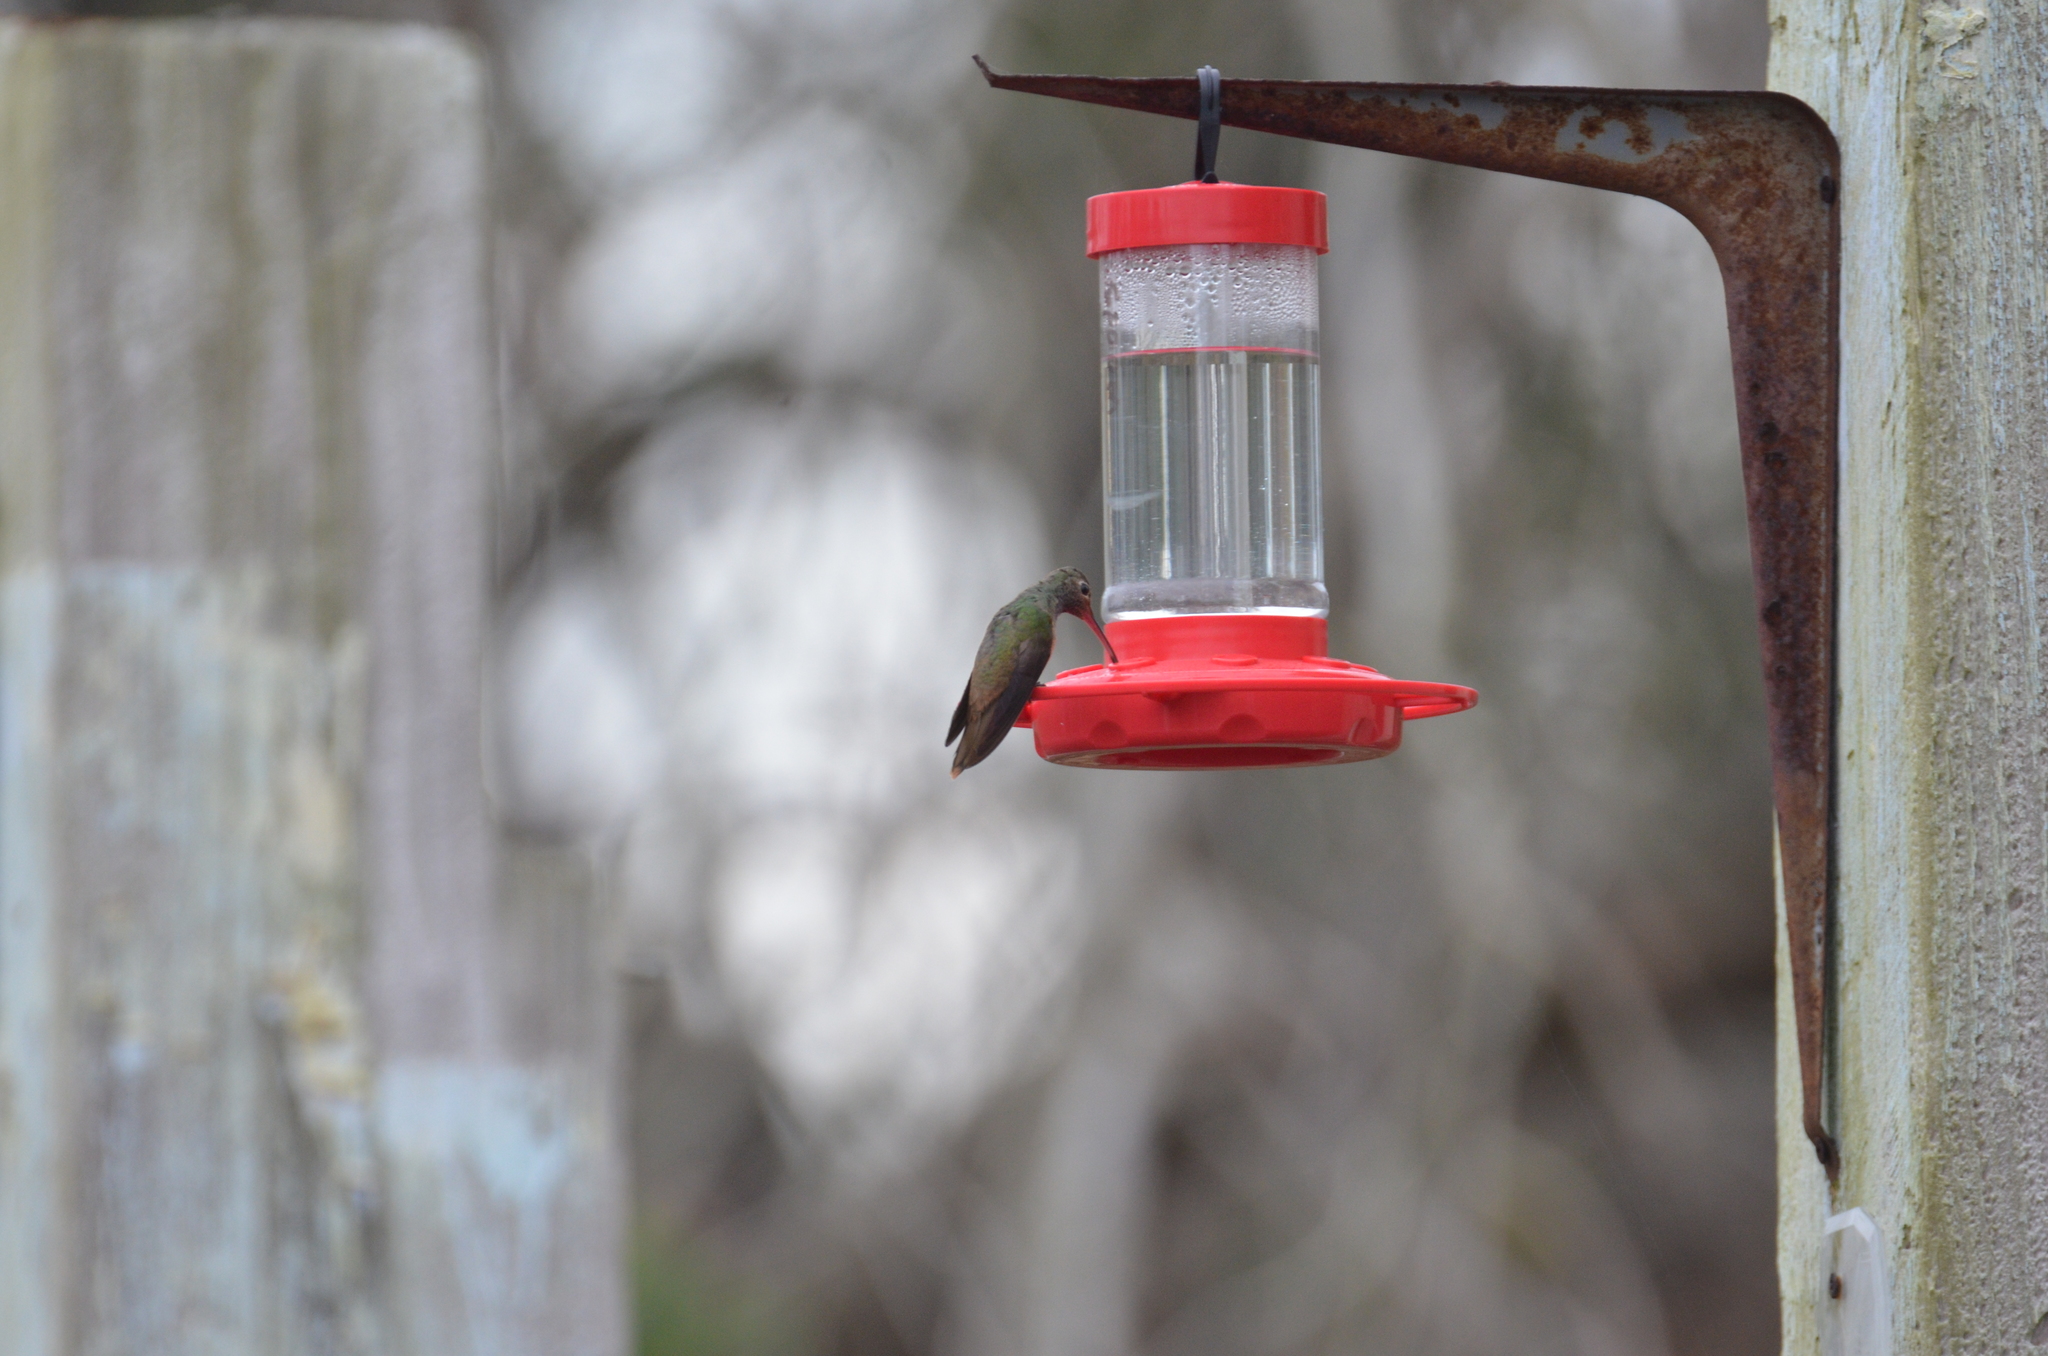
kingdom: Animalia
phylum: Chordata
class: Aves
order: Apodiformes
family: Trochilidae
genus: Amazilia
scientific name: Amazilia yucatanensis
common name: Buff-bellied hummingbird
